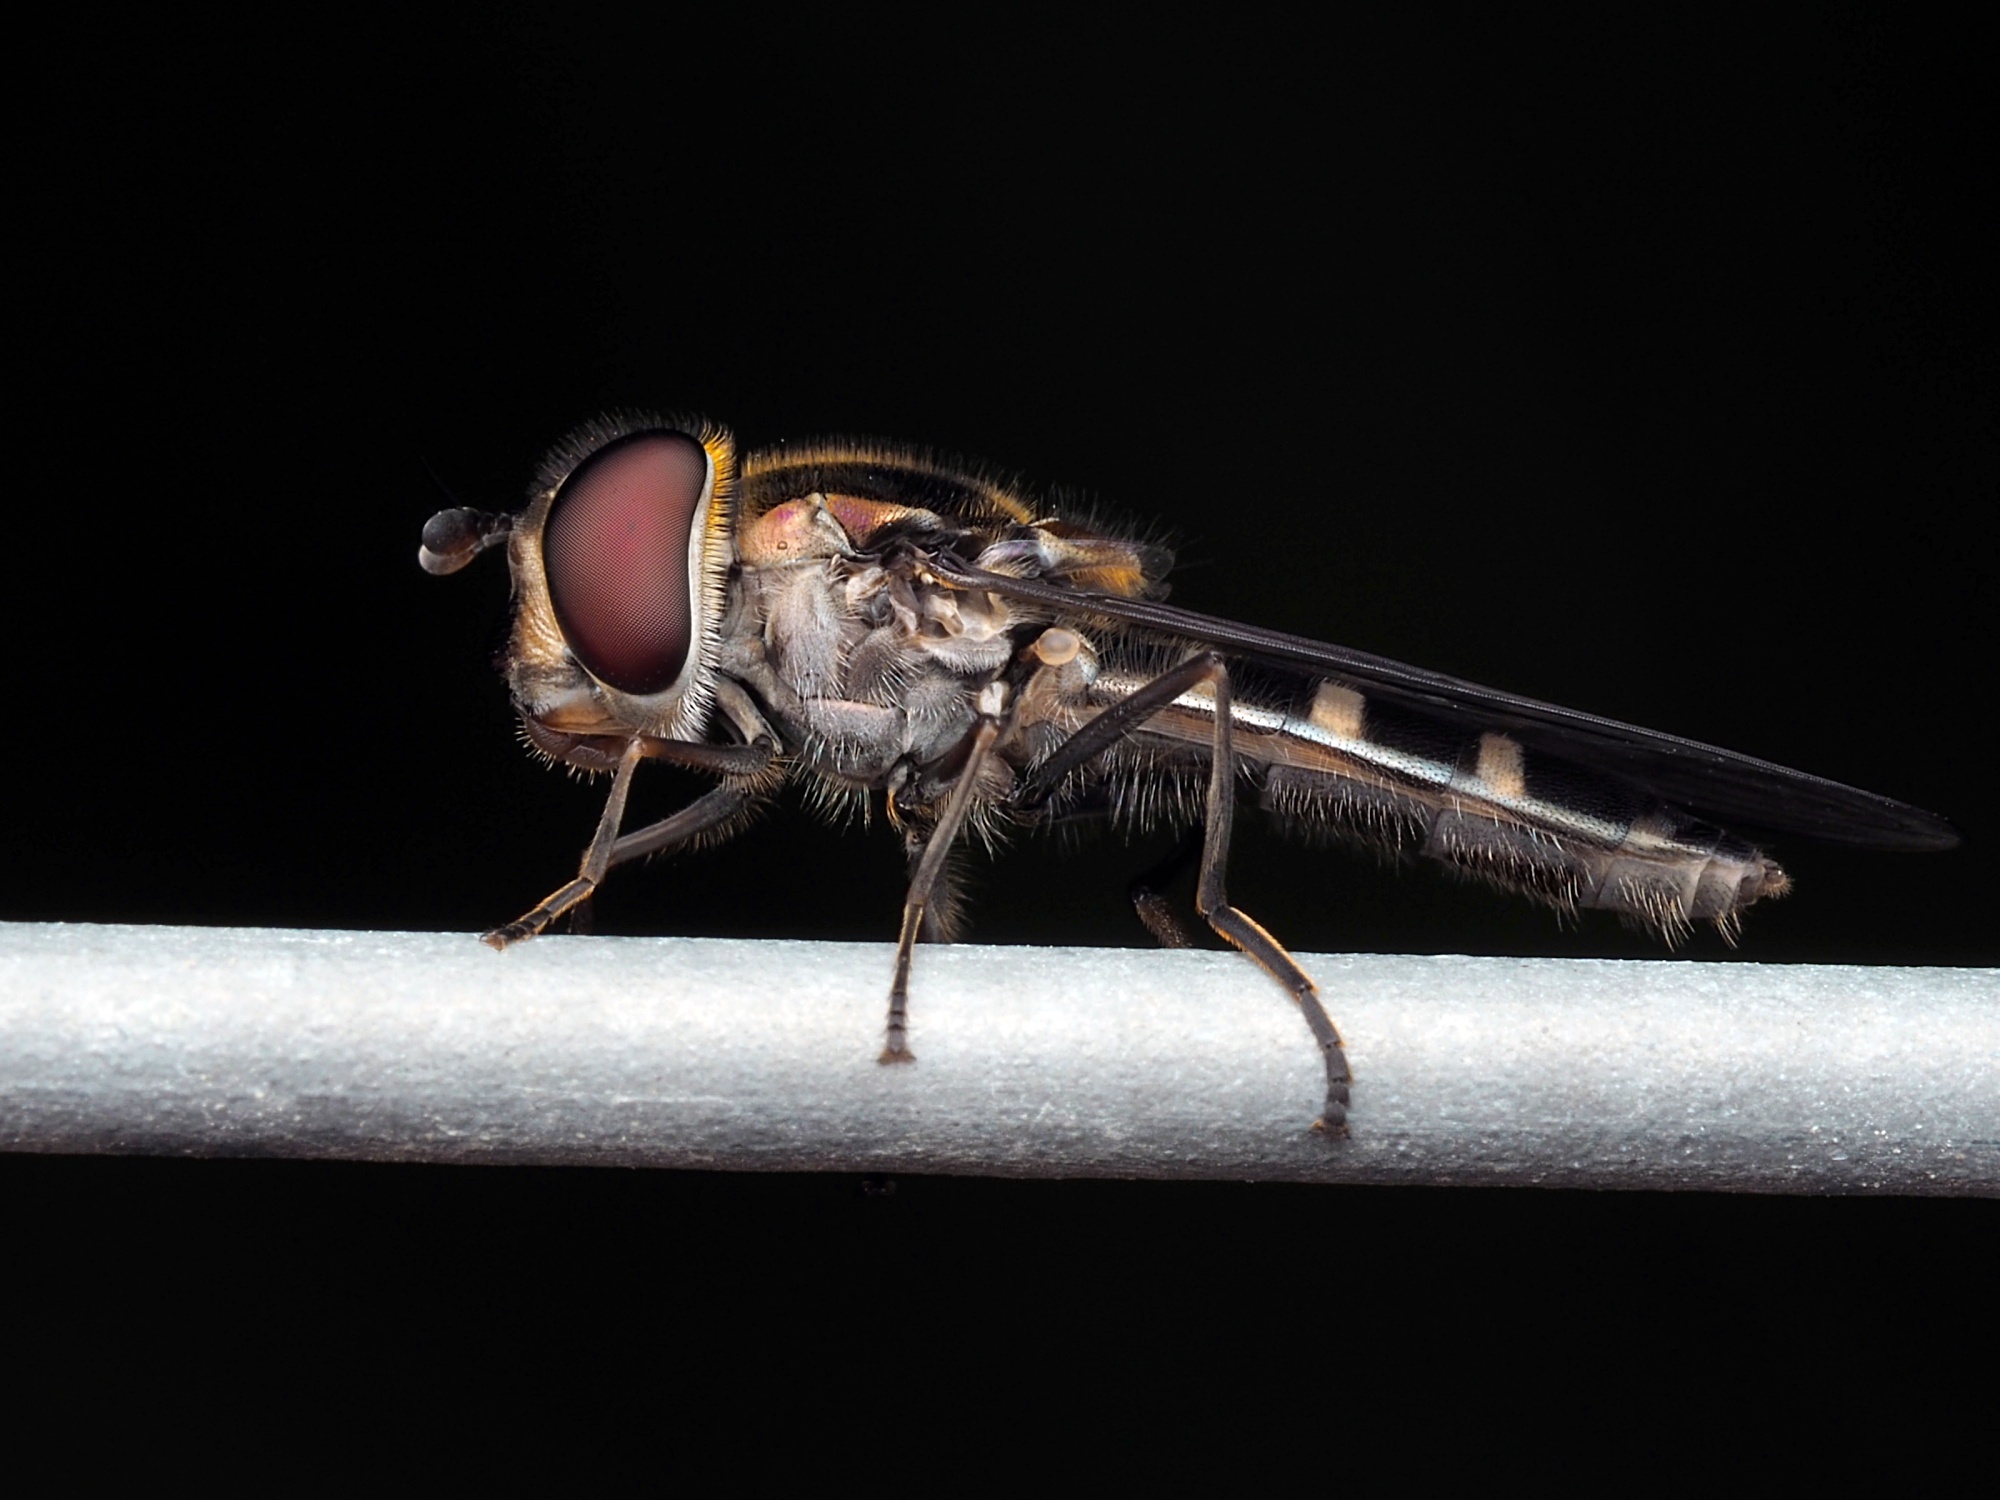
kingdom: Animalia
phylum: Arthropoda
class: Insecta
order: Diptera
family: Syrphidae
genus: Melangyna
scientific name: Melangyna novaezelandiae
